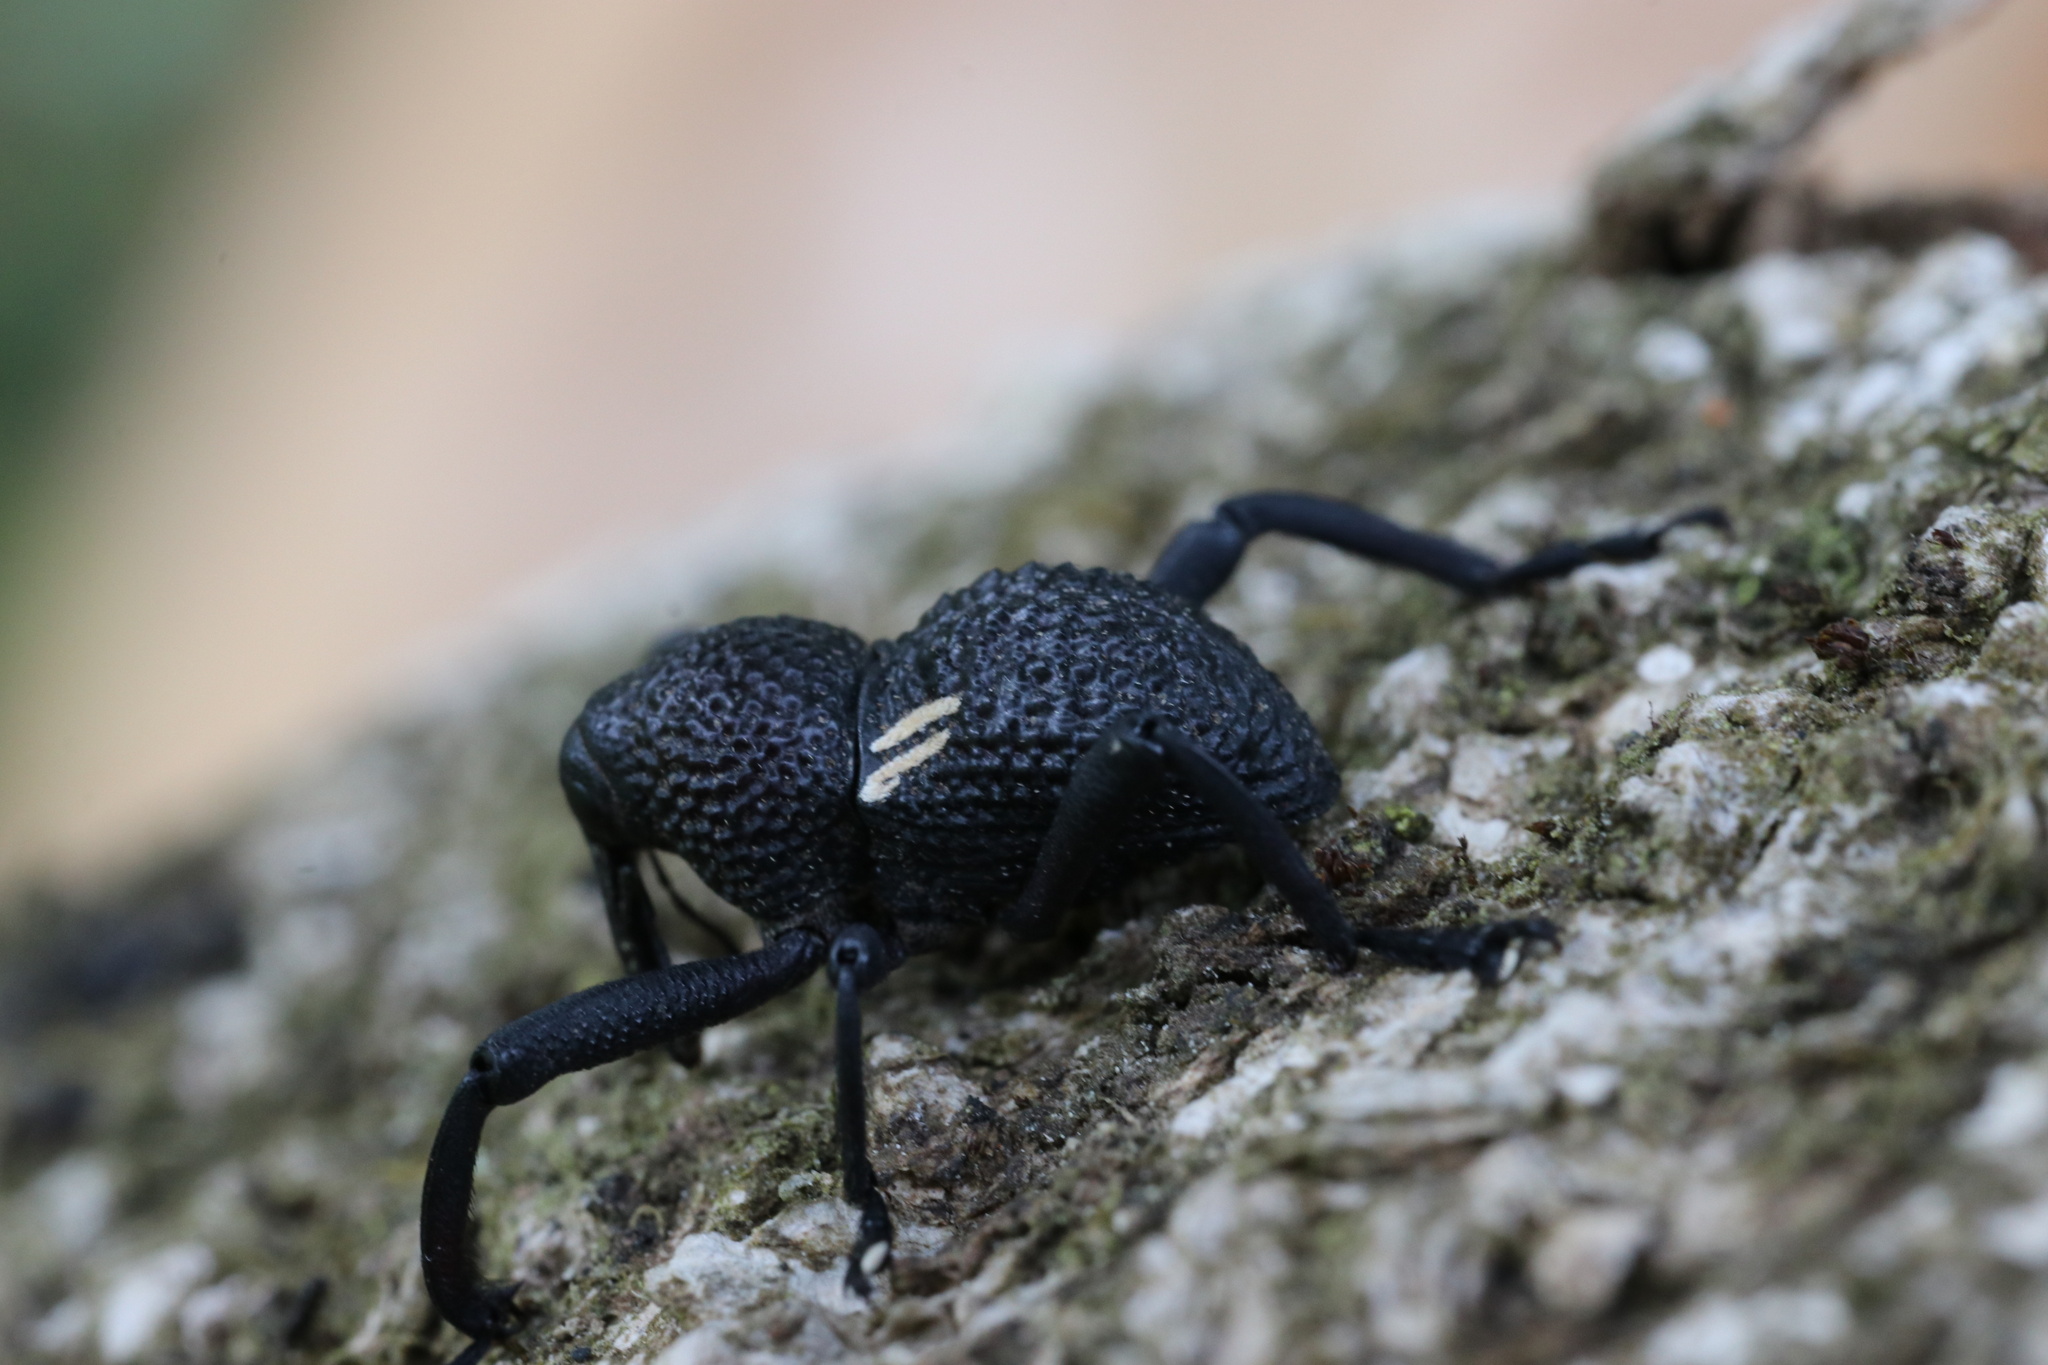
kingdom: Animalia
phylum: Arthropoda
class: Insecta
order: Coleoptera
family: Curculionidae
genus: Rhyephenes
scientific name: Rhyephenes humeralis
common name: Araè±ita chilena del pino
